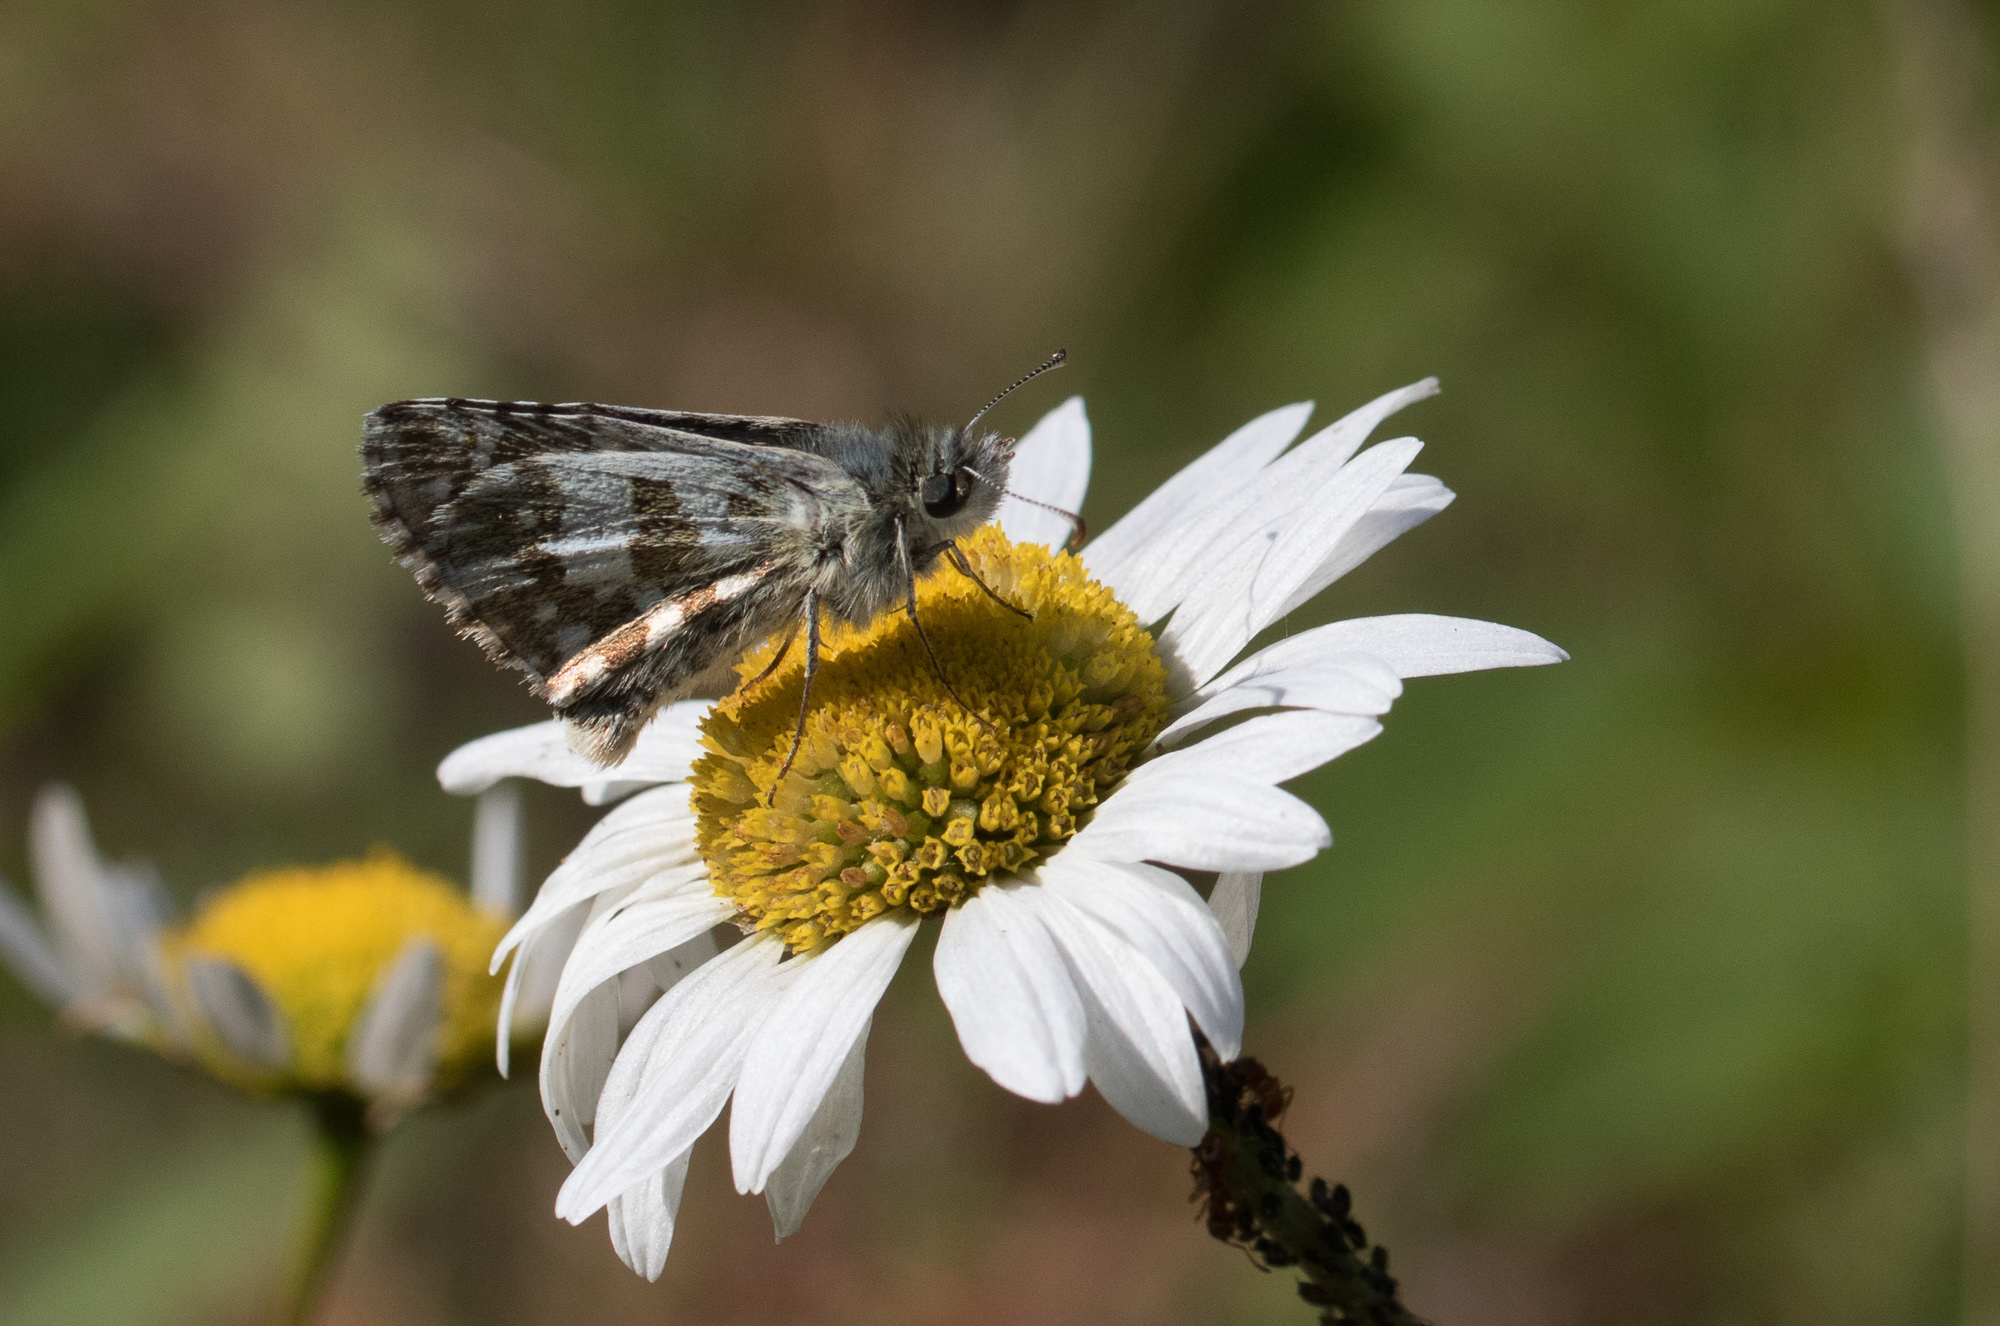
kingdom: Animalia
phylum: Arthropoda
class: Insecta
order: Lepidoptera
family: Hesperiidae
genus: Pyrgus
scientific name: Pyrgus alveus
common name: Large grizzled skipper
